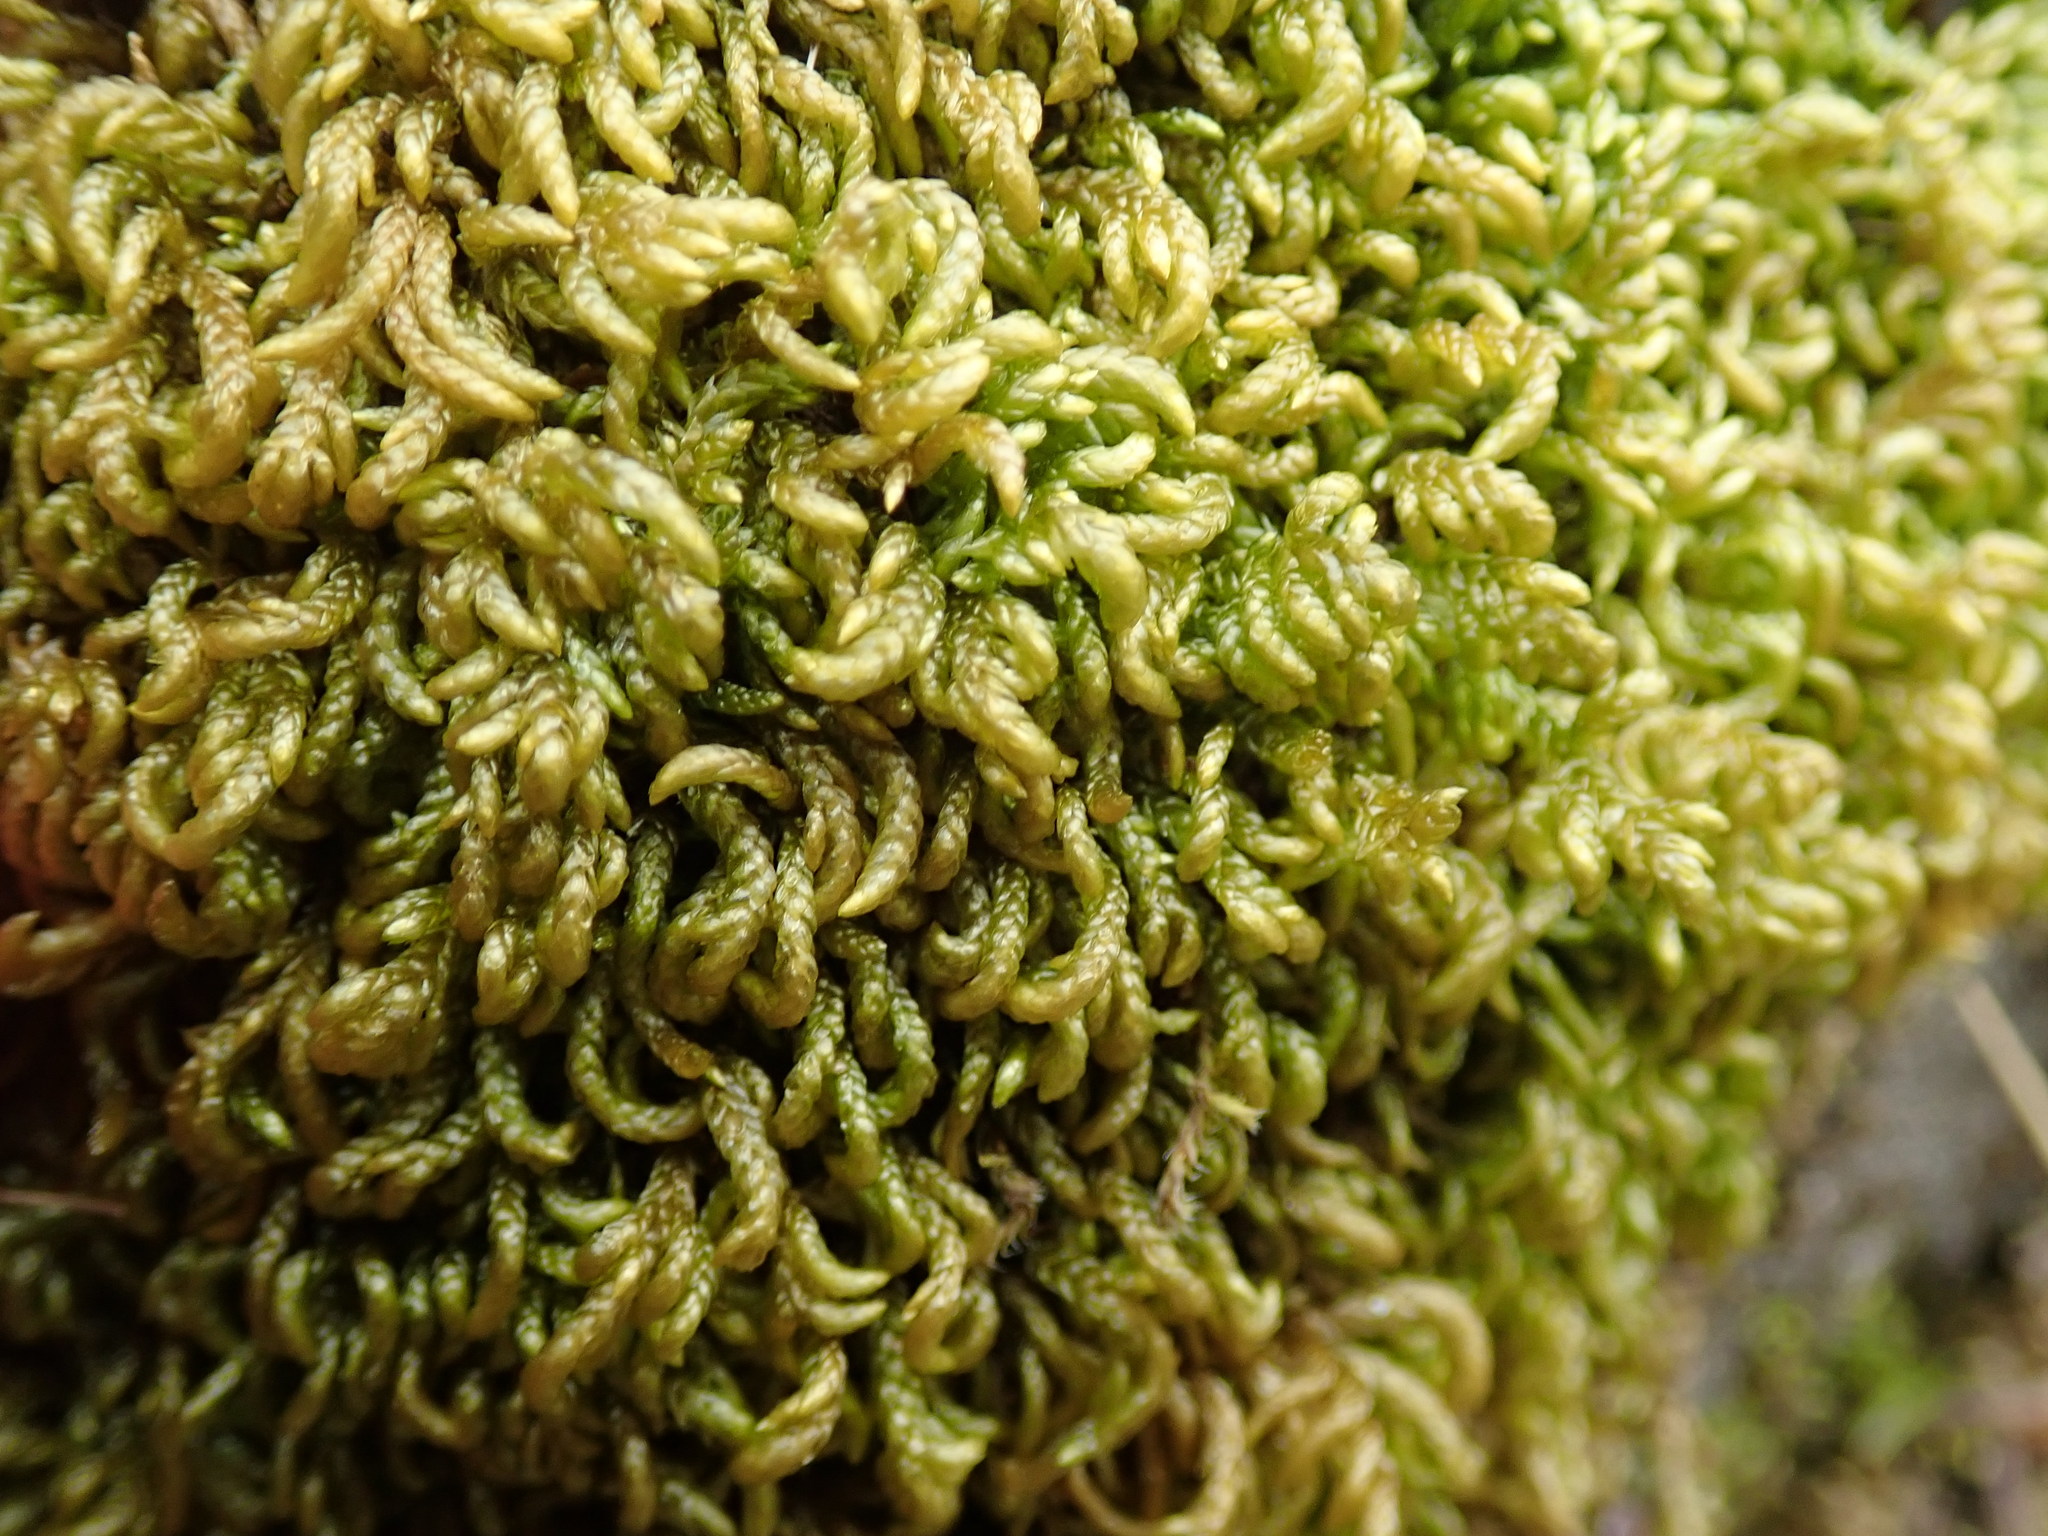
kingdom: Plantae
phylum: Bryophyta
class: Bryopsida
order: Hypnales
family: Brachytheciaceae
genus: Scleropodium
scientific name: Scleropodium touretii
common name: Glass-wort feather-moss
